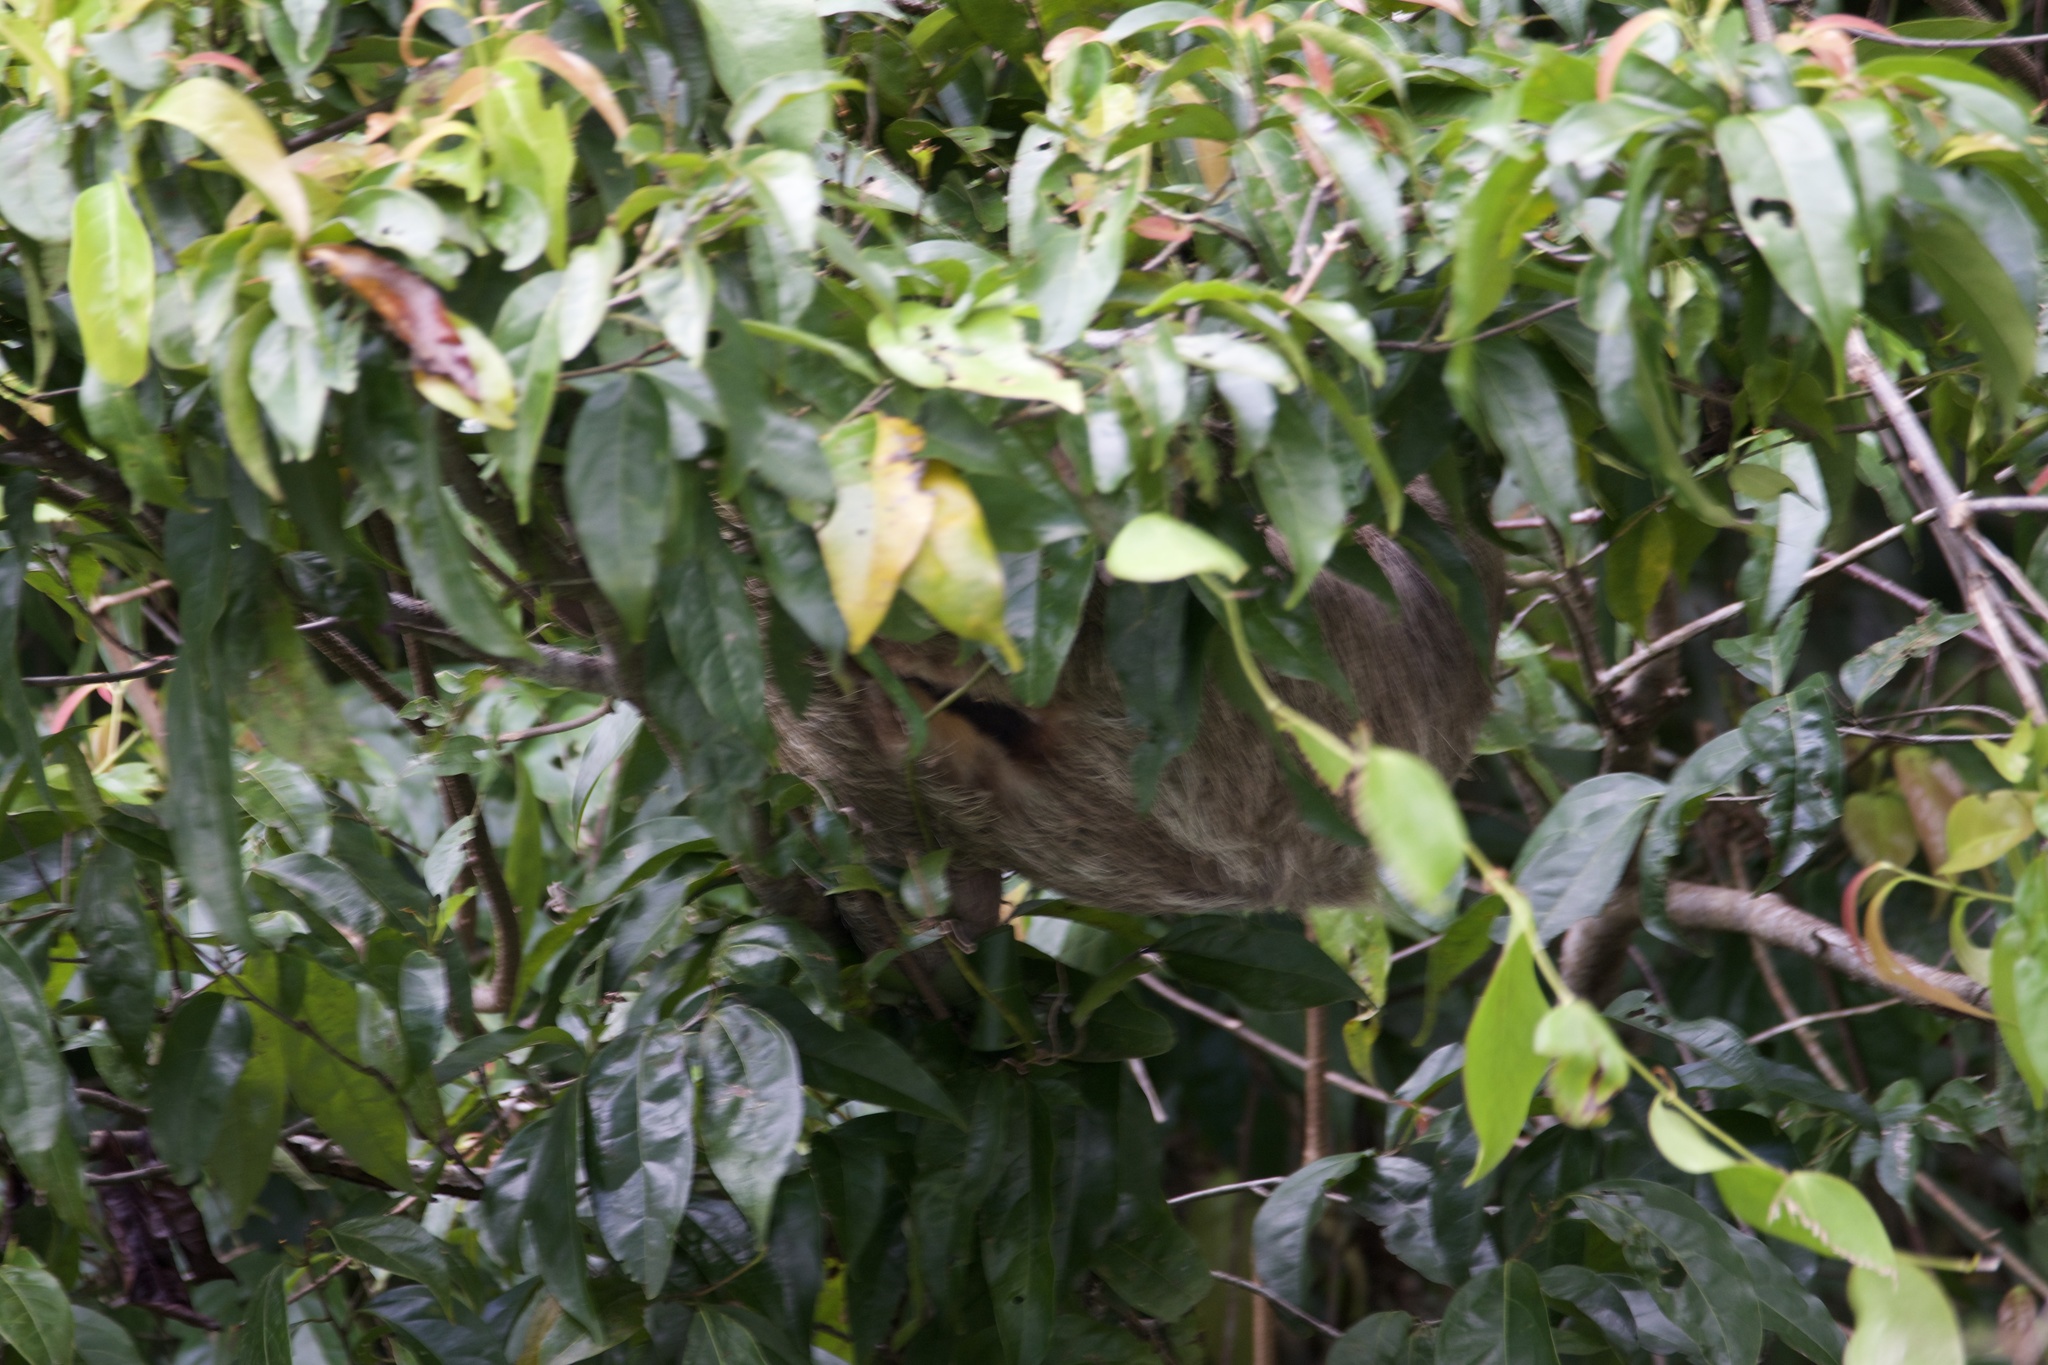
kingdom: Animalia
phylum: Chordata
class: Mammalia
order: Pilosa
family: Bradypodidae
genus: Bradypus
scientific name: Bradypus variegatus
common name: Brown-throated three-toed sloth
